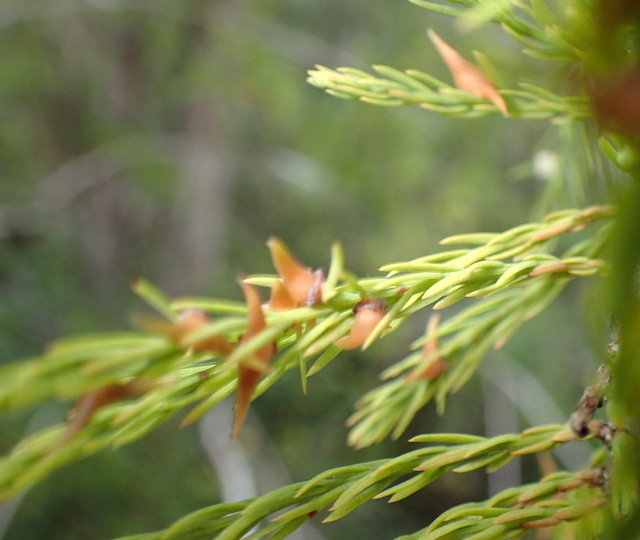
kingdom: Animalia
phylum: Arthropoda
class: Insecta
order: Diptera
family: Cecidomyiidae
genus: Taxodiomyia
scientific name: Taxodiomyia taxodii
